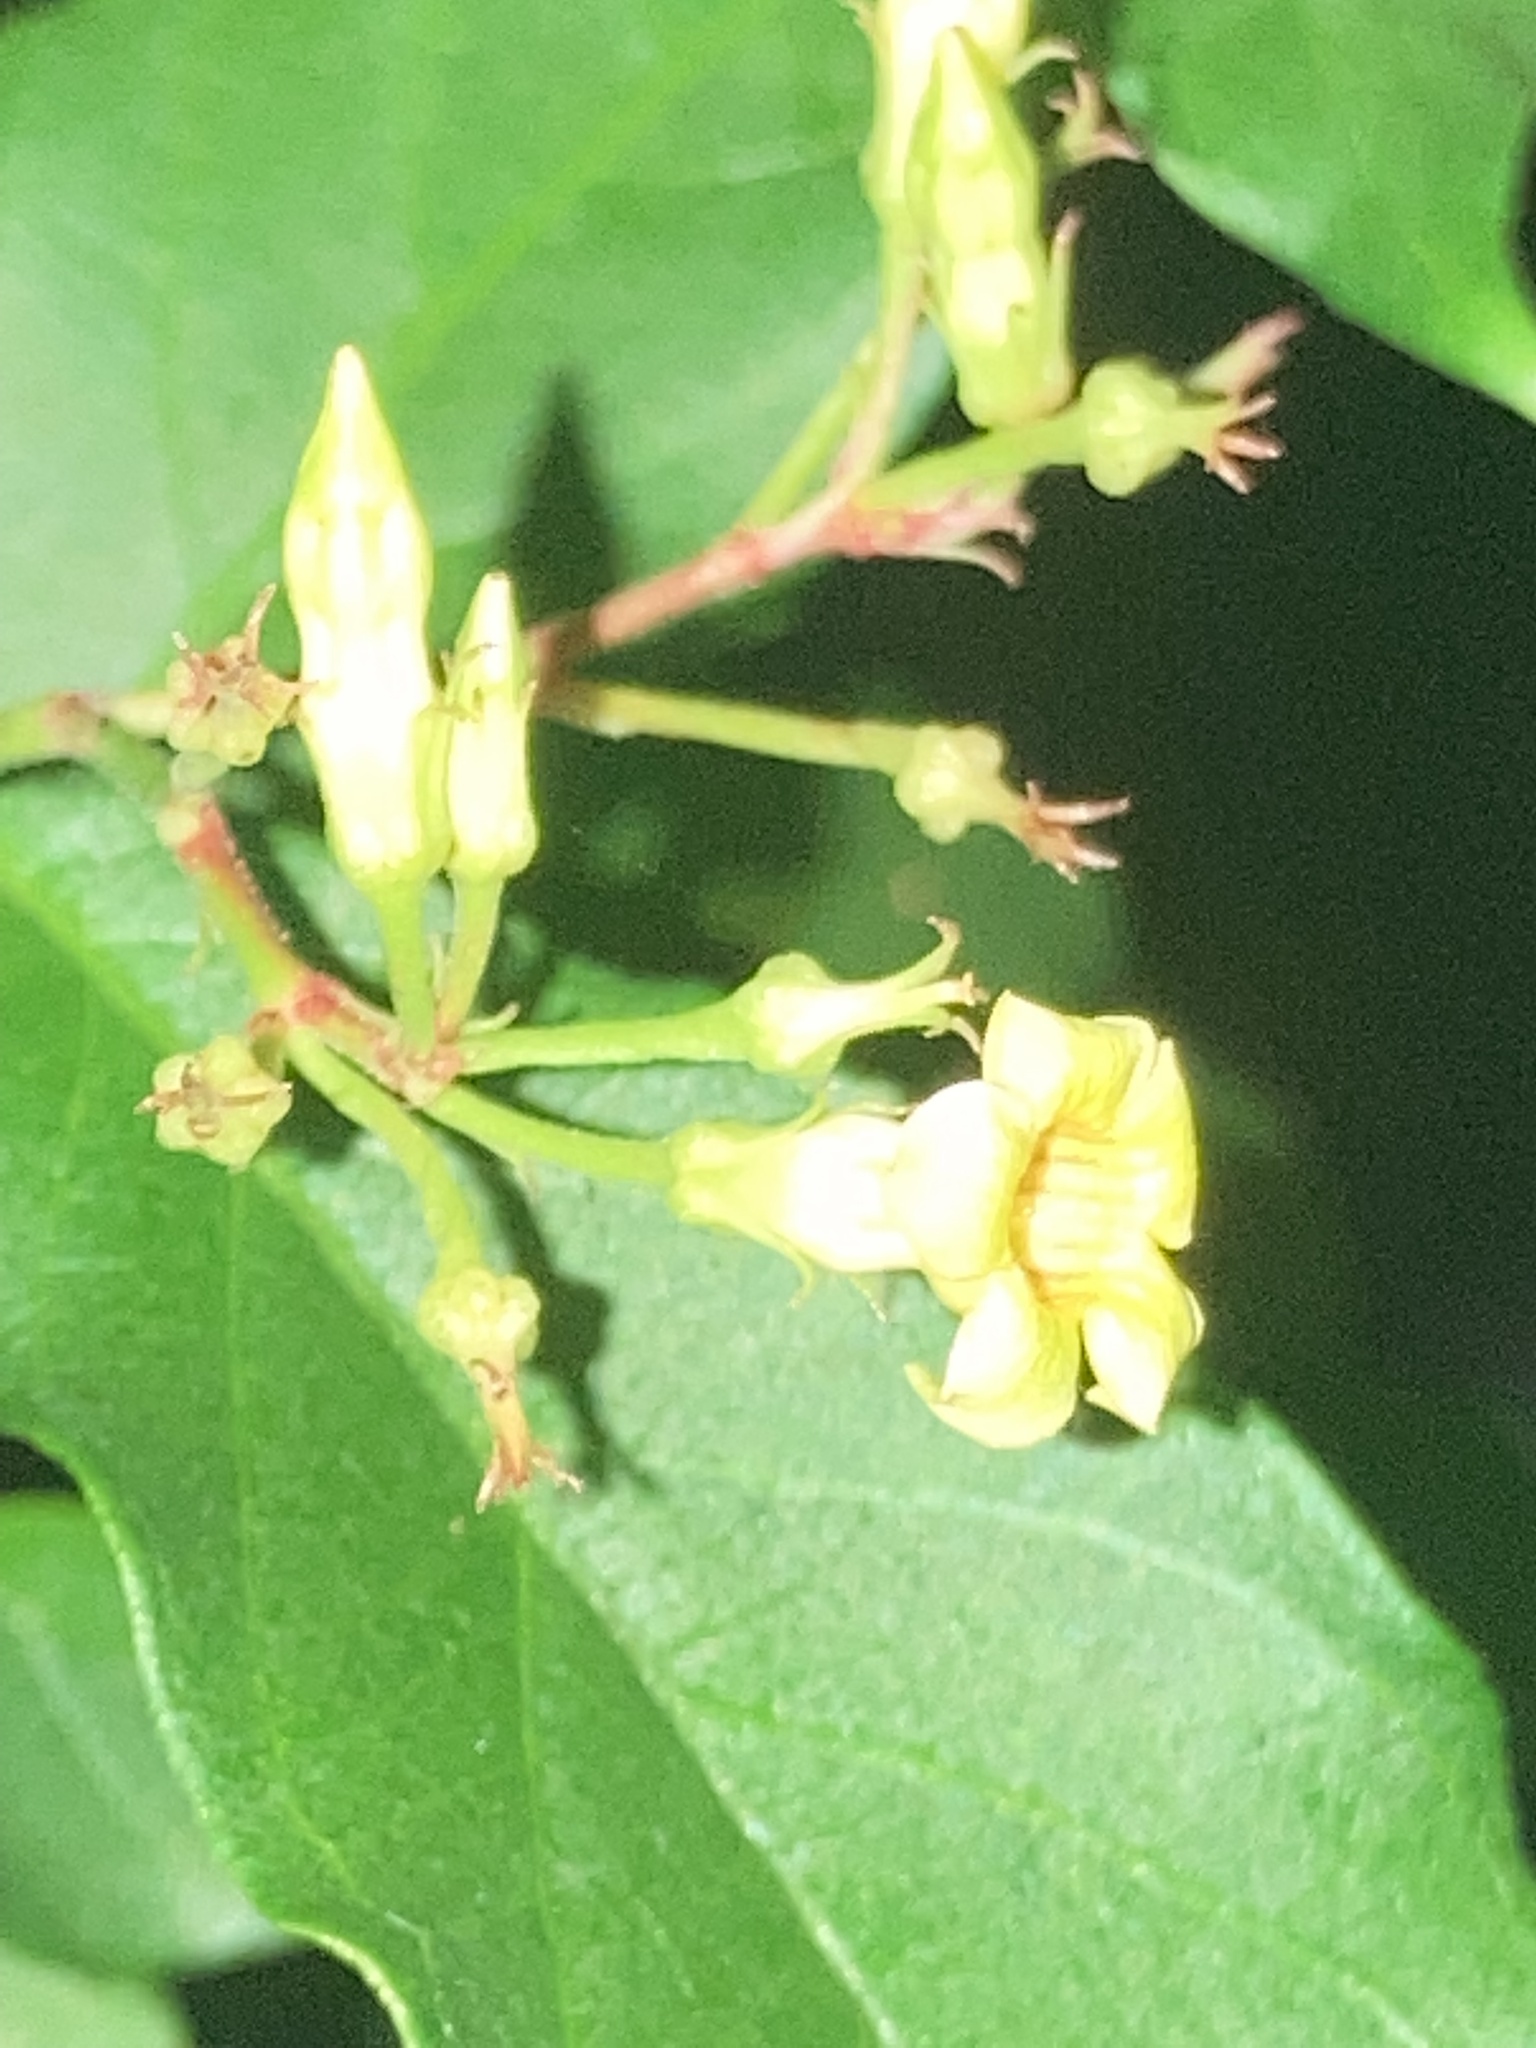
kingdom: Plantae
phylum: Tracheophyta
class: Magnoliopsida
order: Gentianales
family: Apocynaceae
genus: Thyrsanthella
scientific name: Thyrsanthella difformis
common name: Climbing dogbane
